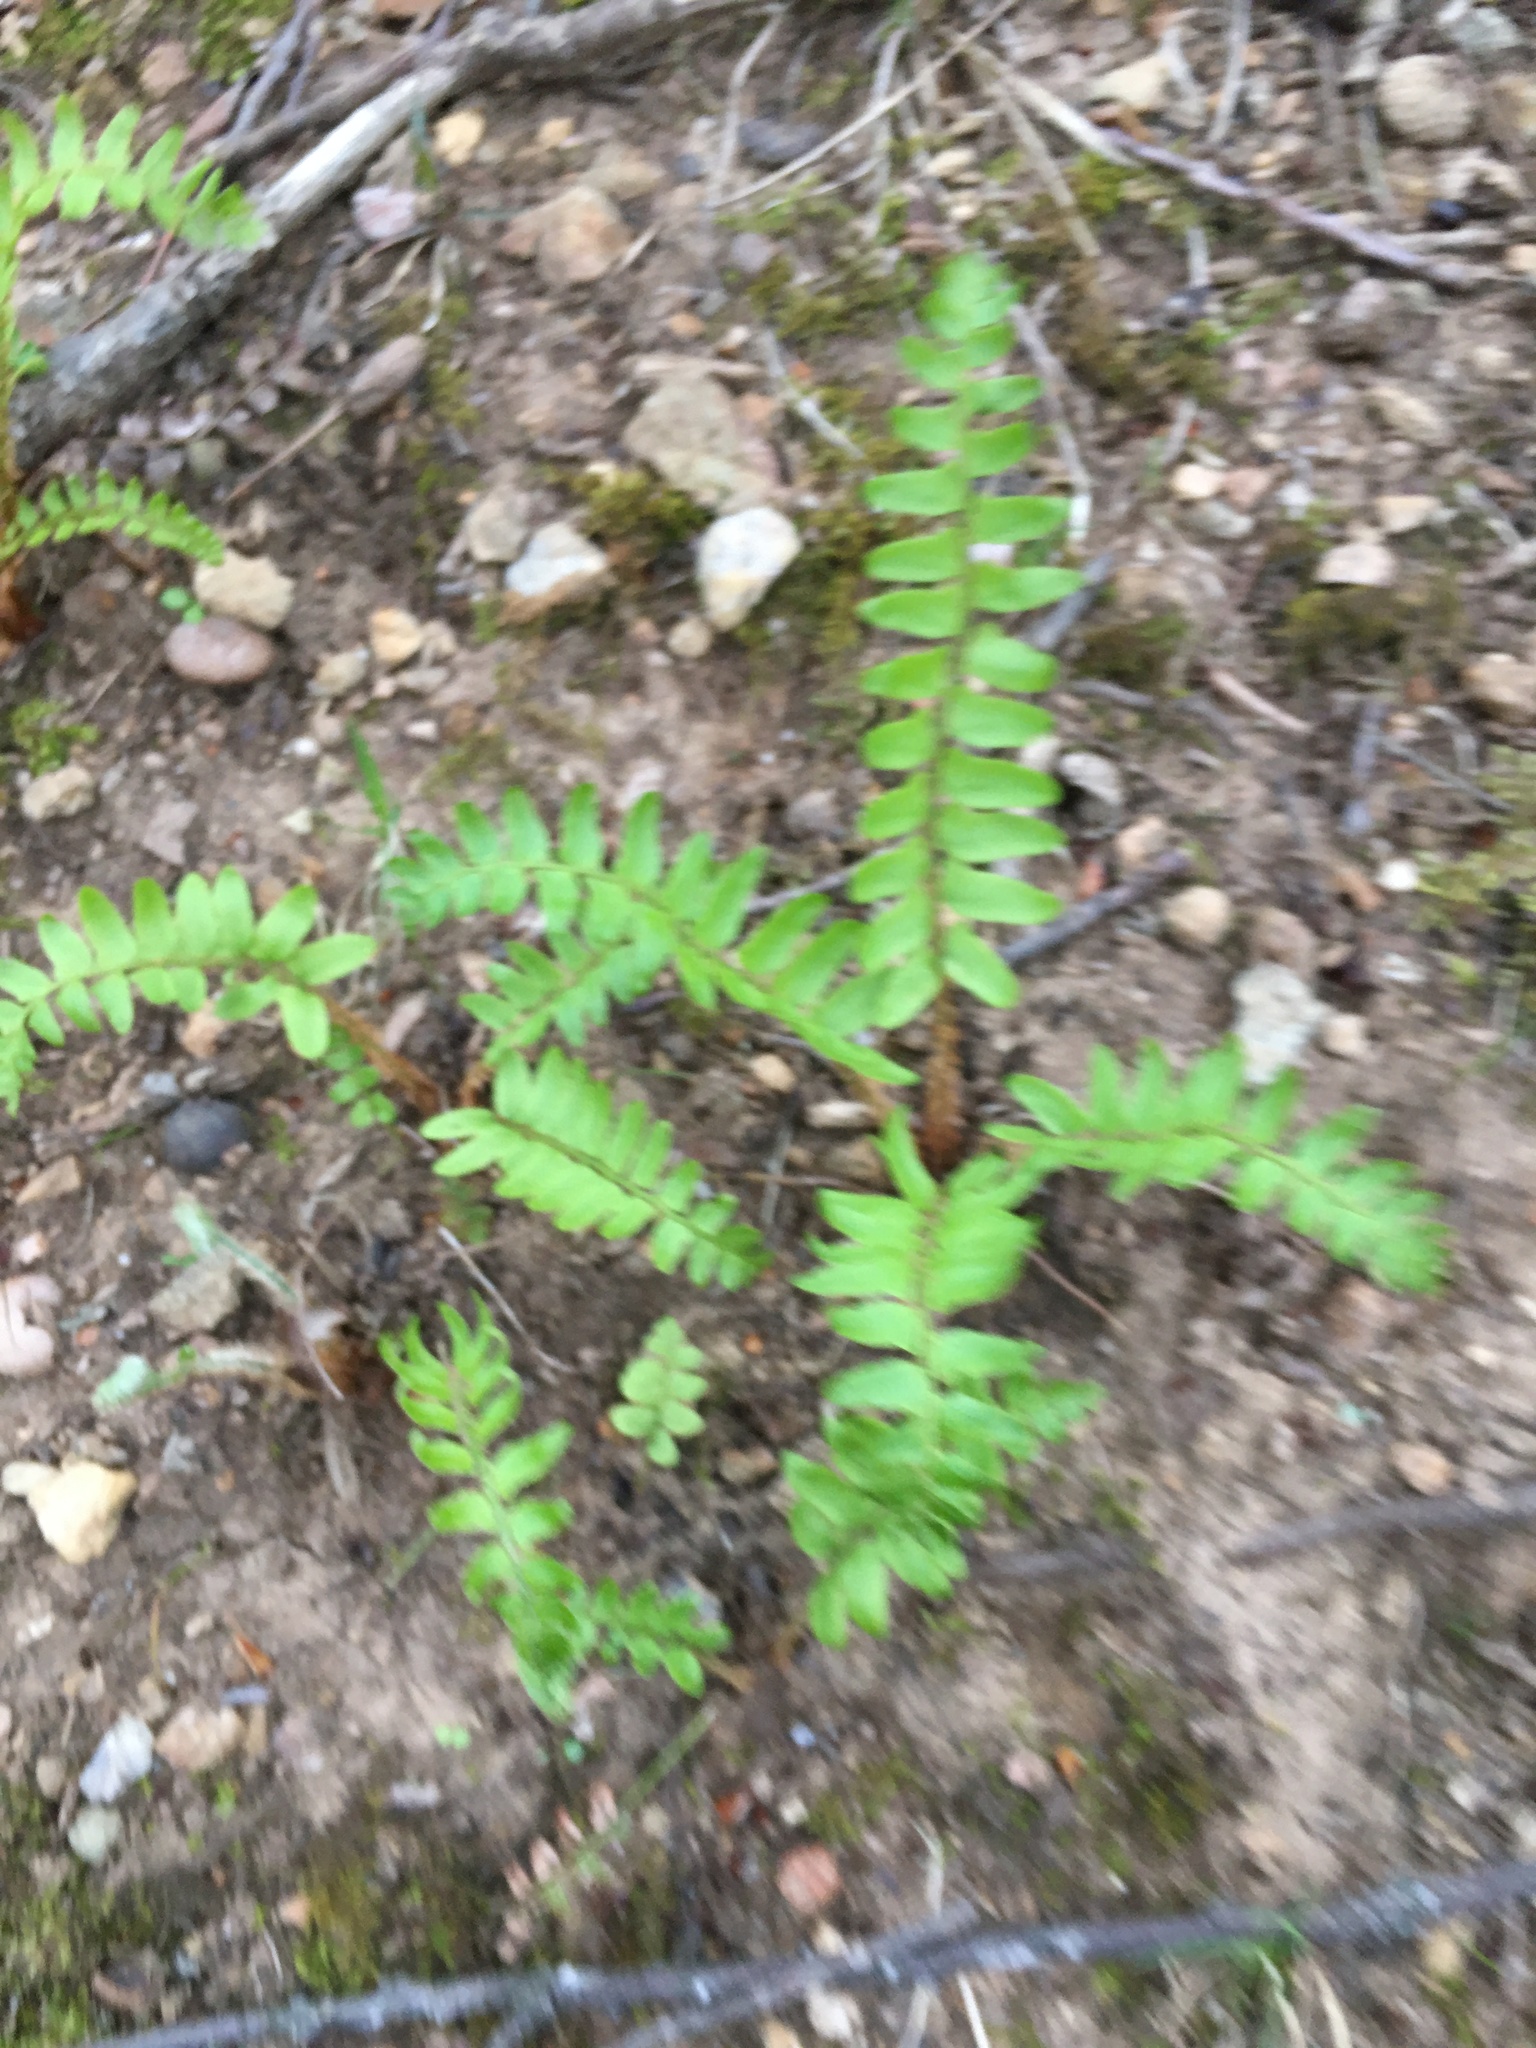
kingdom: Plantae
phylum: Tracheophyta
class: Polypodiopsida
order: Polypodiales
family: Dryopteridaceae
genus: Polystichum
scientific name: Polystichum acrostichoides
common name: Christmas fern
